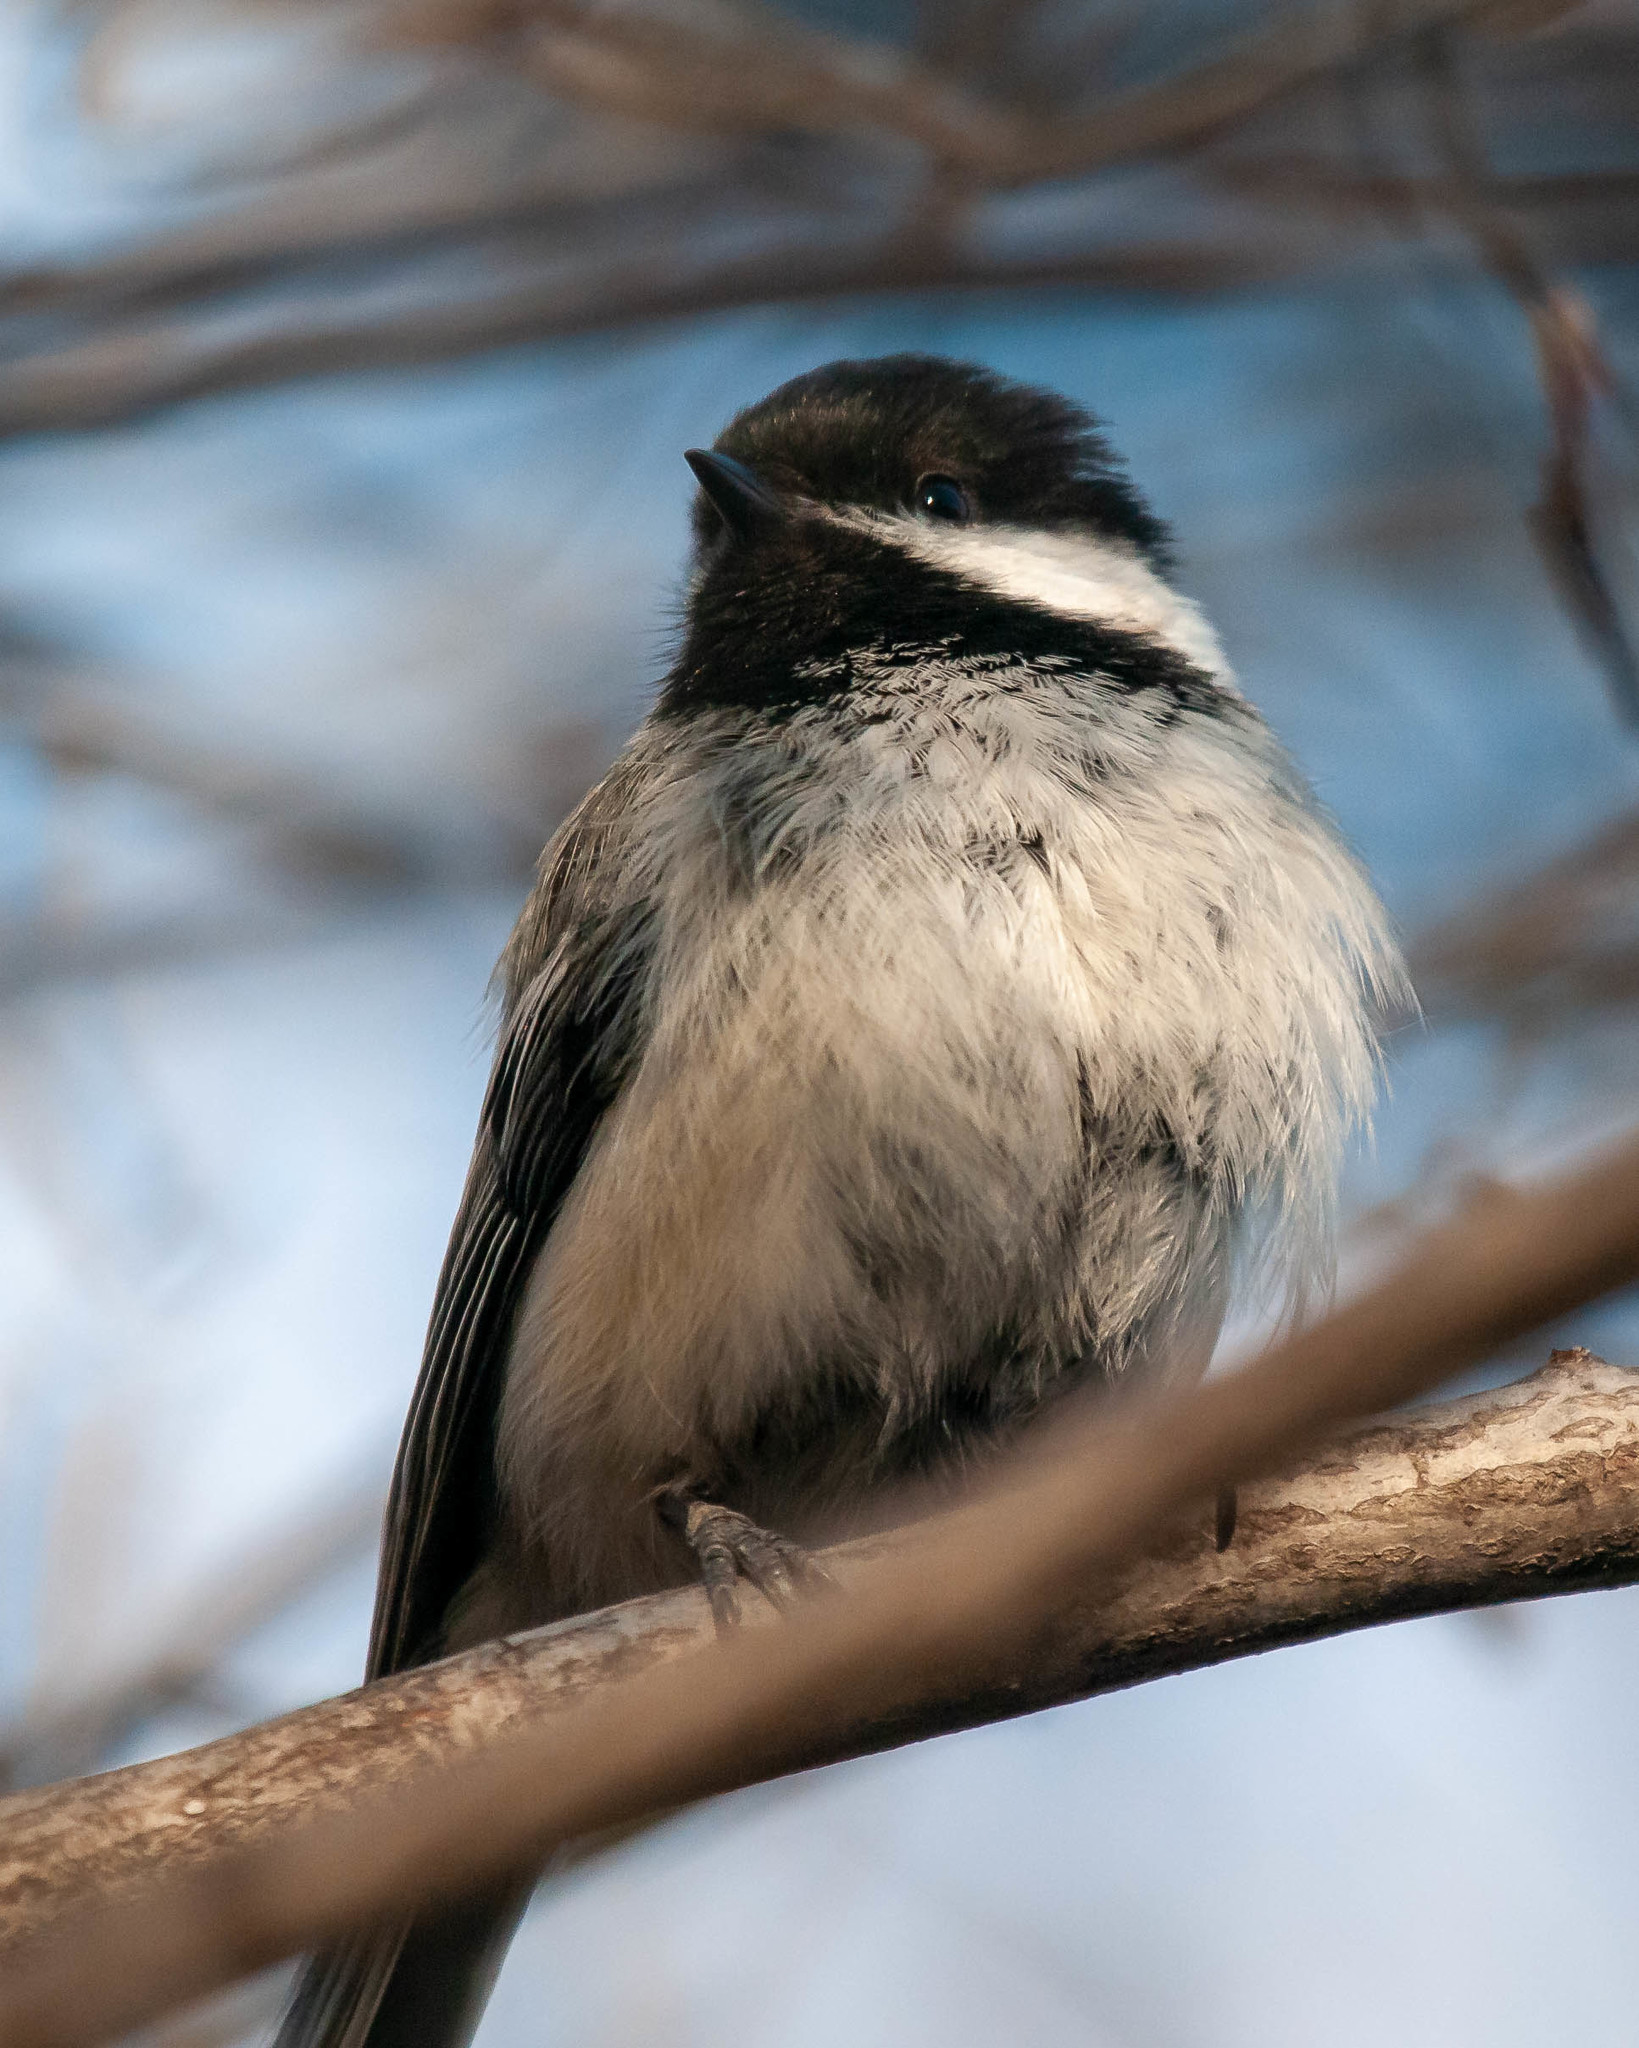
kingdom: Animalia
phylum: Chordata
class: Aves
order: Passeriformes
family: Paridae
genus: Poecile
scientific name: Poecile atricapillus
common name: Black-capped chickadee
